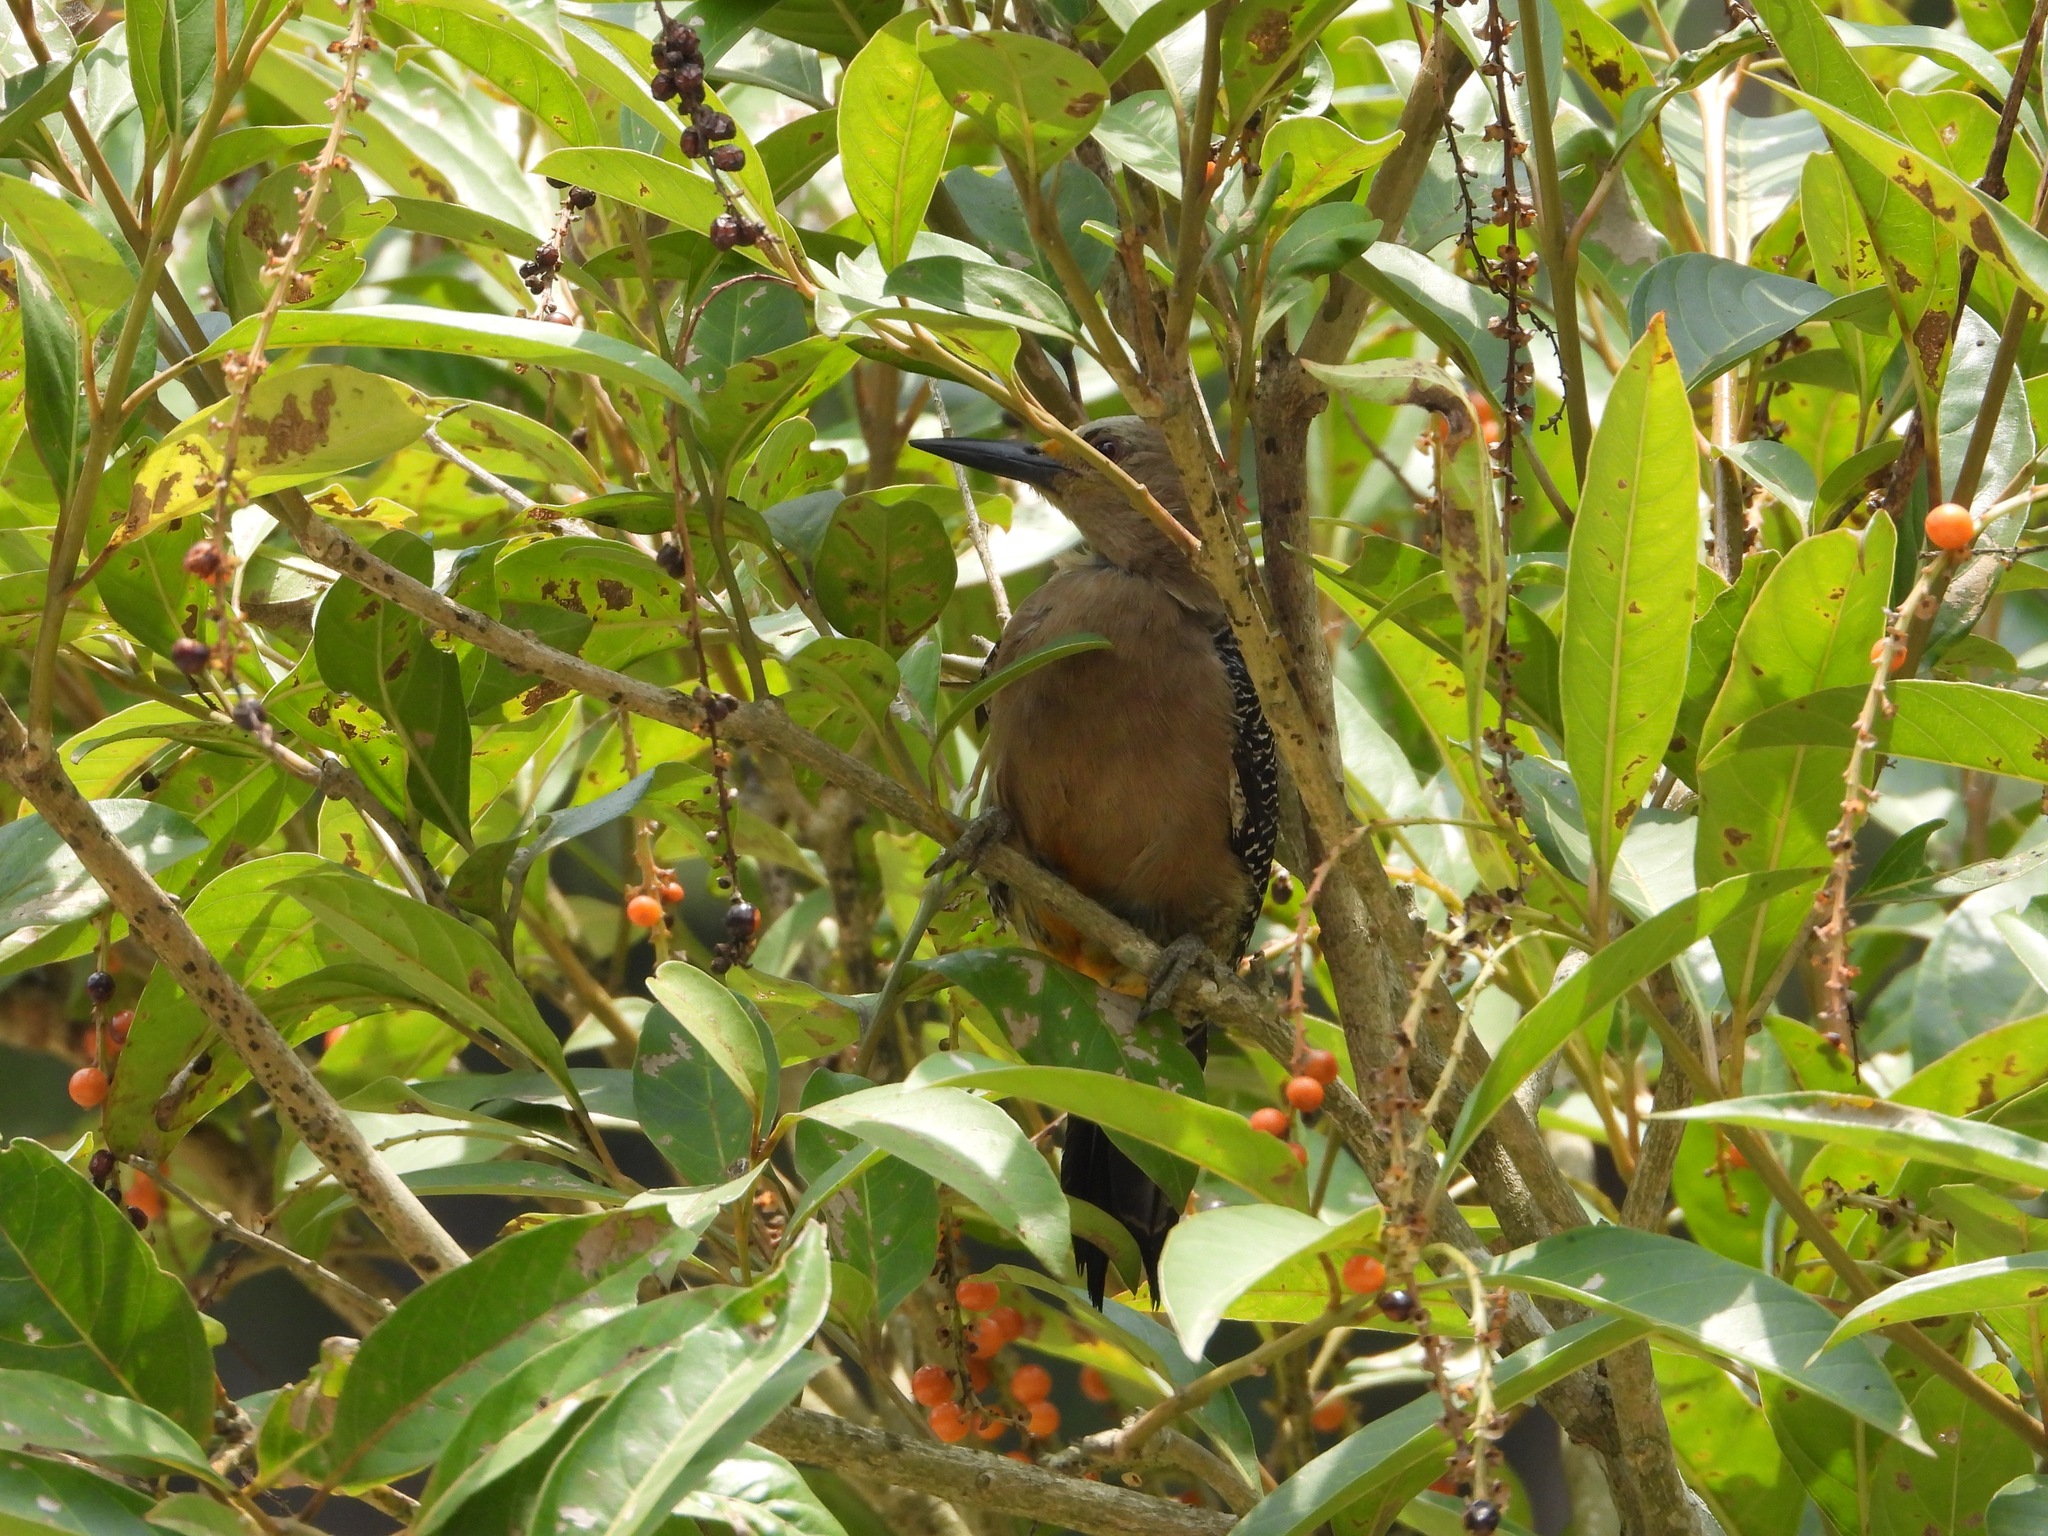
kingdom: Animalia
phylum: Chordata
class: Aves
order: Piciformes
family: Picidae
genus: Melanerpes
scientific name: Melanerpes aurifrons
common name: Golden-fronted woodpecker
